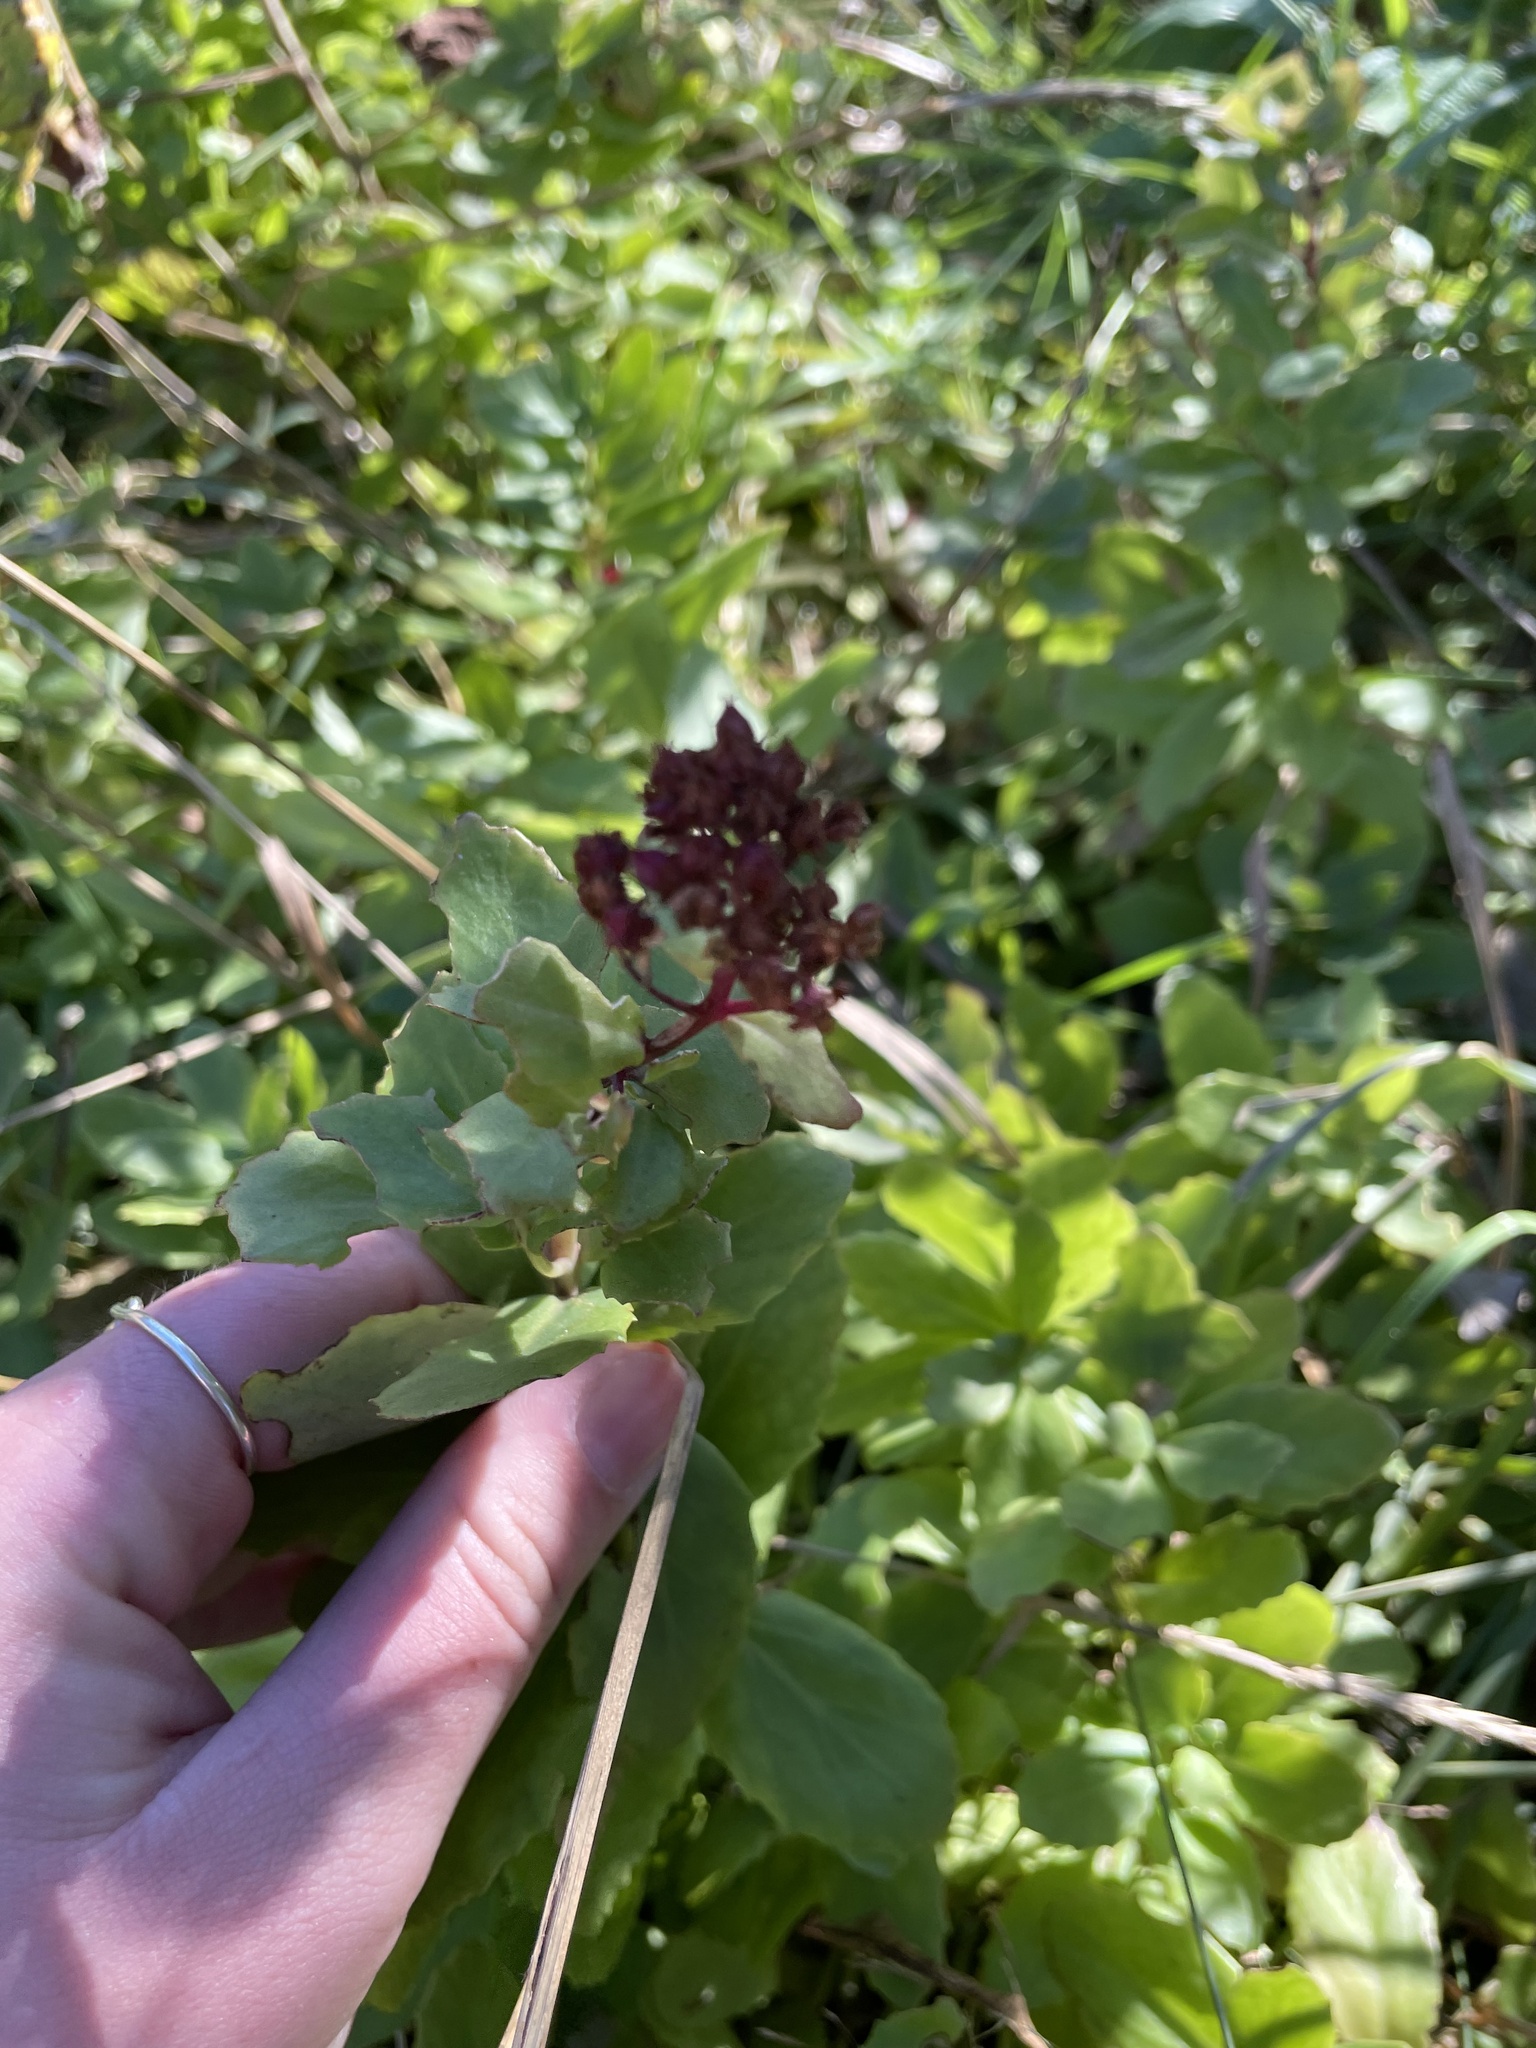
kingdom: Plantae
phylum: Tracheophyta
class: Magnoliopsida
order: Saxifragales
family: Crassulaceae
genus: Hylotelephium
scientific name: Hylotelephium telephium
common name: Live-forever
